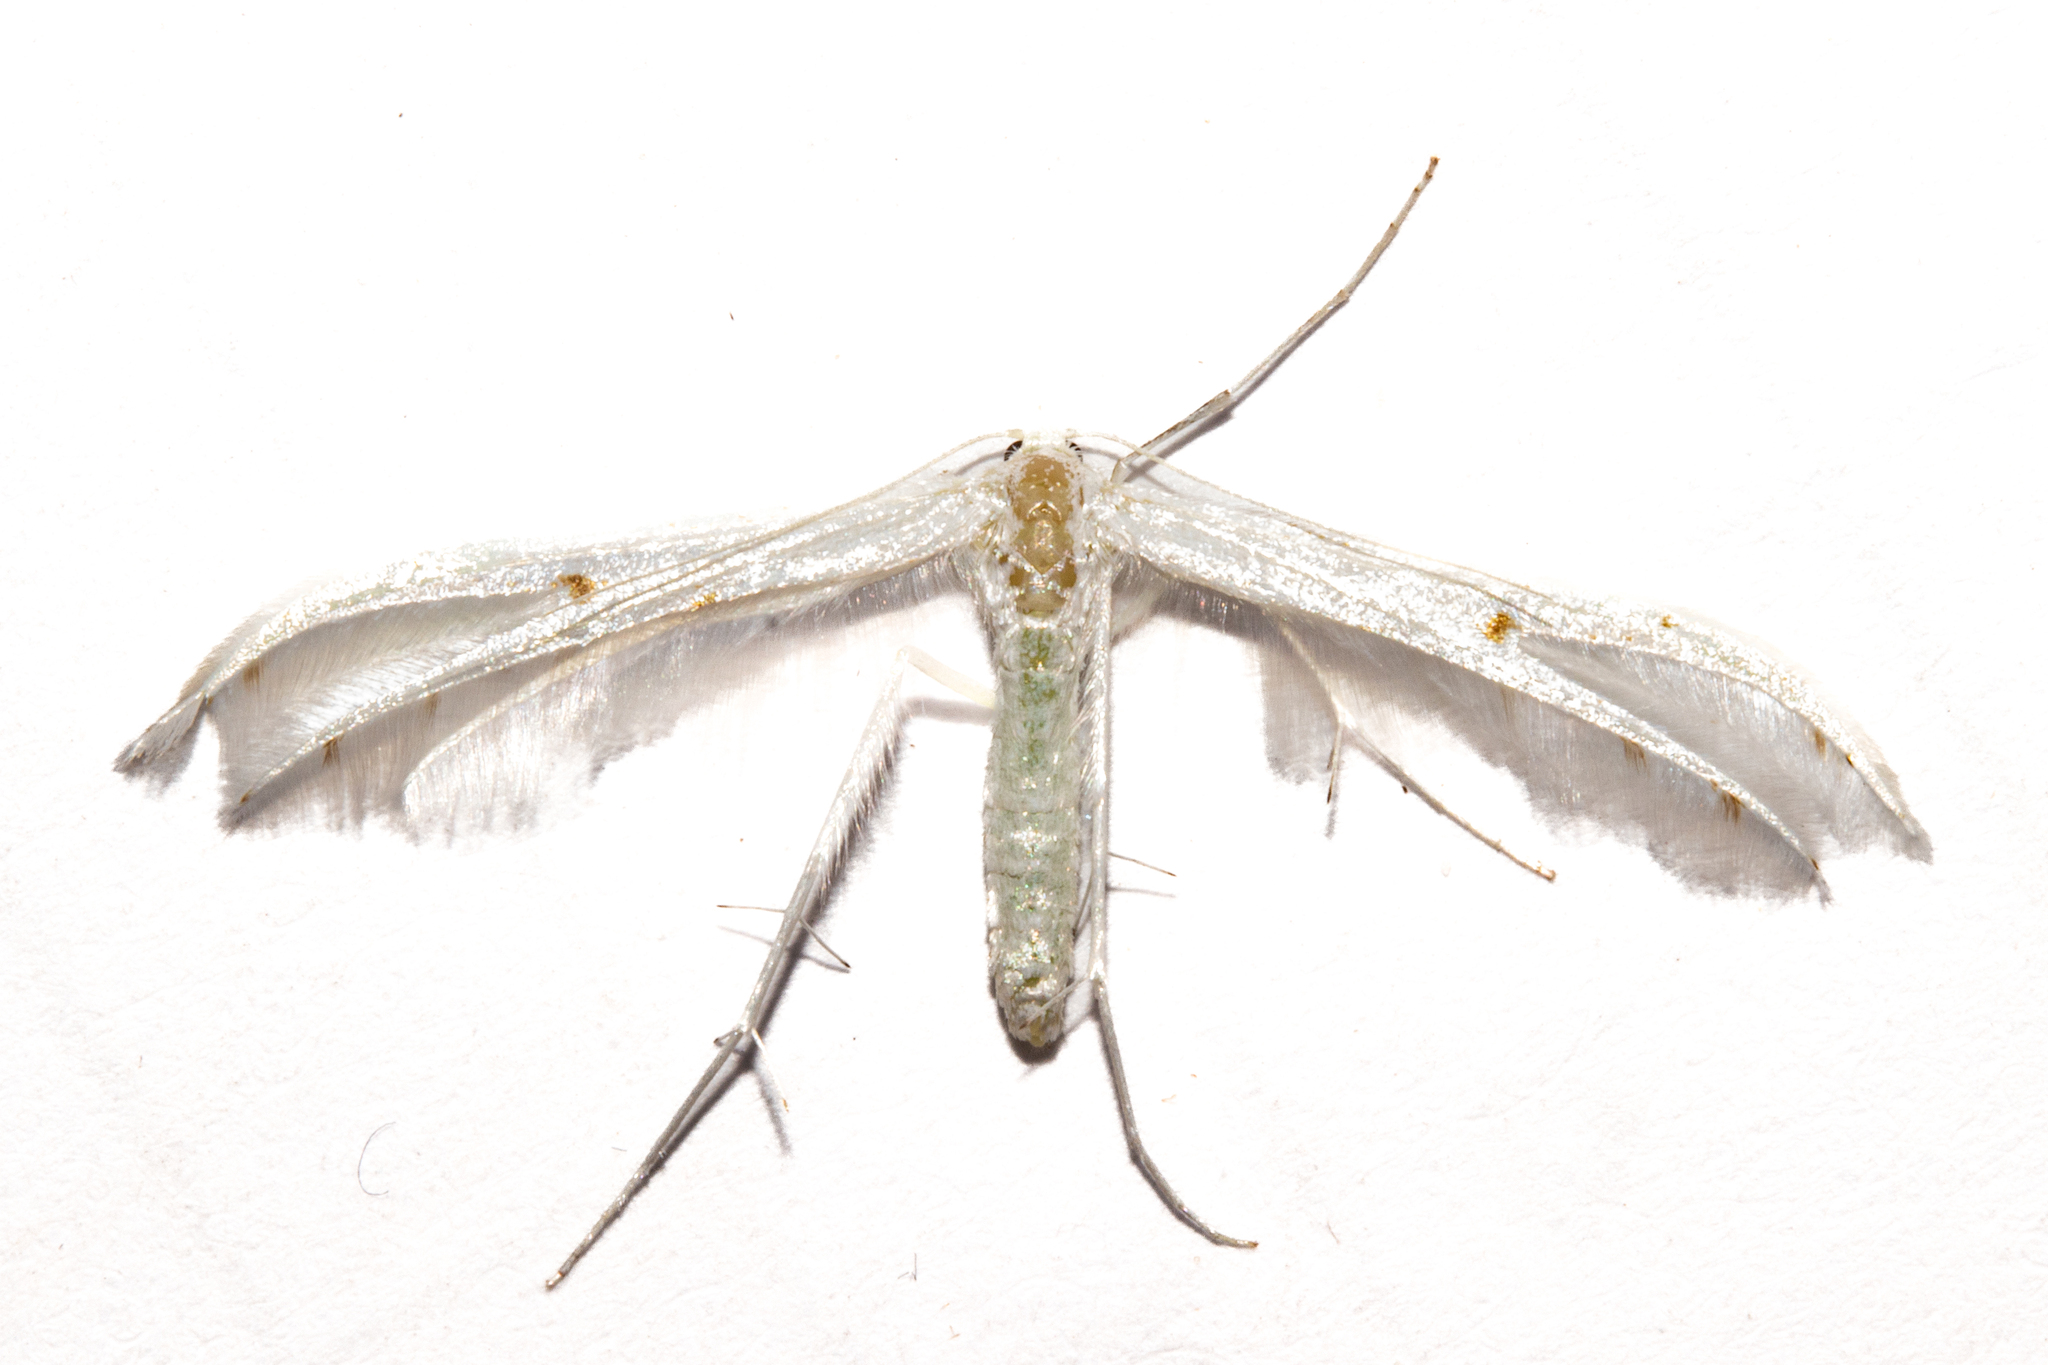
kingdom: Animalia
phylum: Arthropoda
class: Insecta
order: Lepidoptera
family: Pterophoridae
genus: Pterophorus
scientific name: Pterophorus monospilalis
